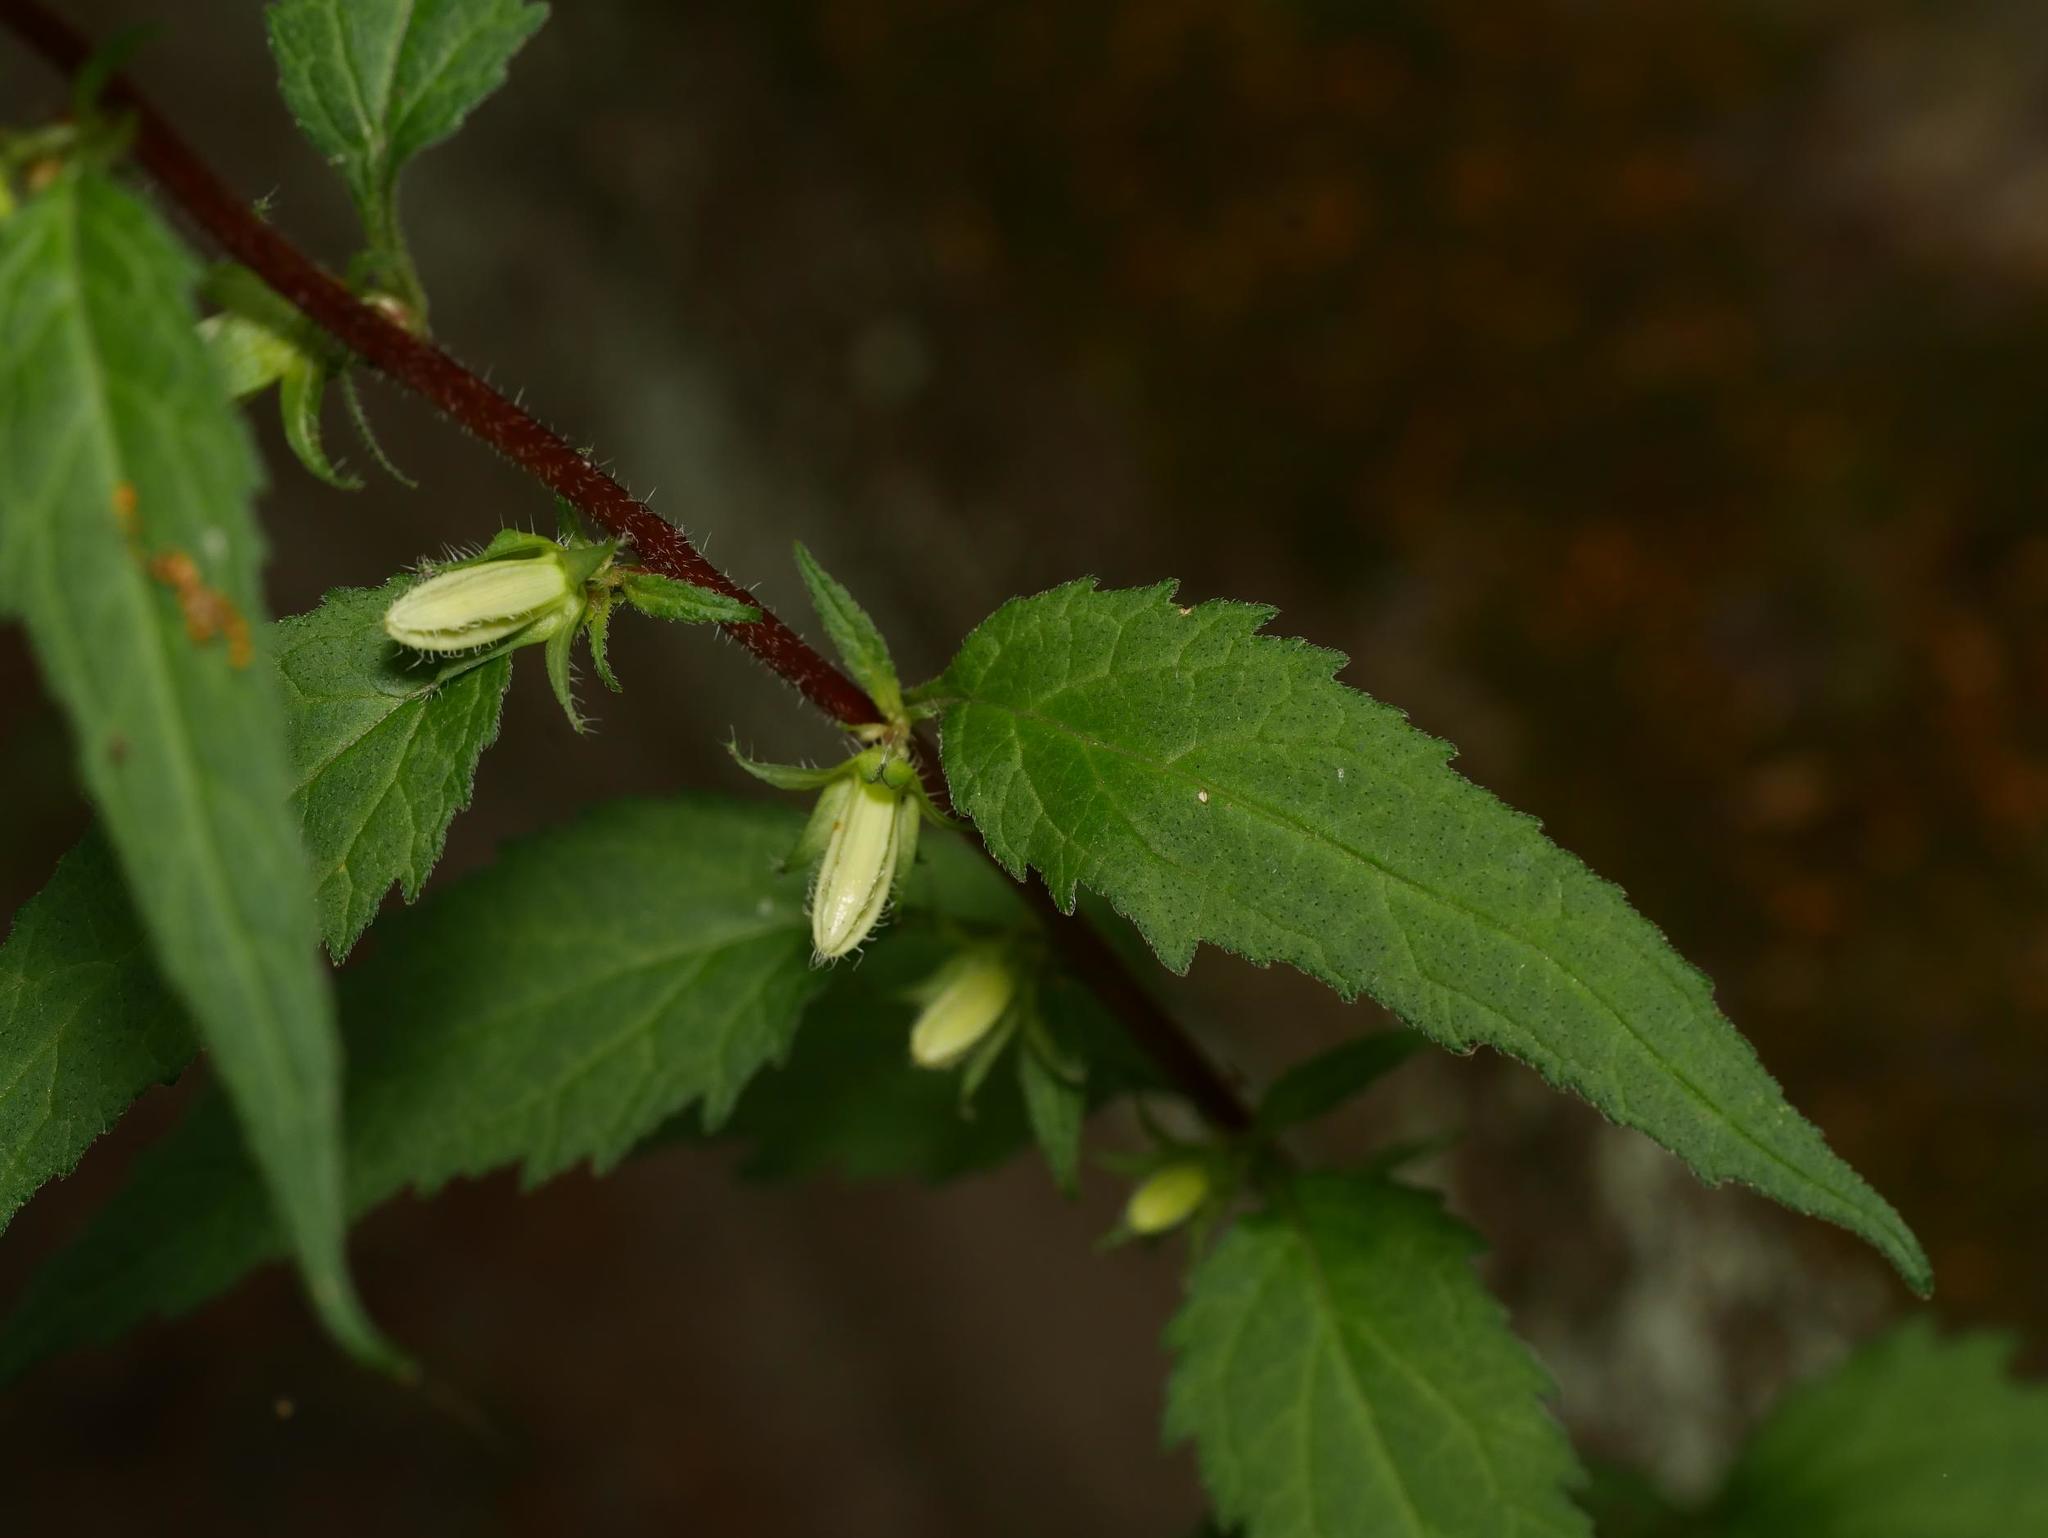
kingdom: Plantae
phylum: Tracheophyta
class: Magnoliopsida
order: Asterales
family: Campanulaceae
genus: Campanula
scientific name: Campanula trachelium
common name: Nettle-leaved bellflower
